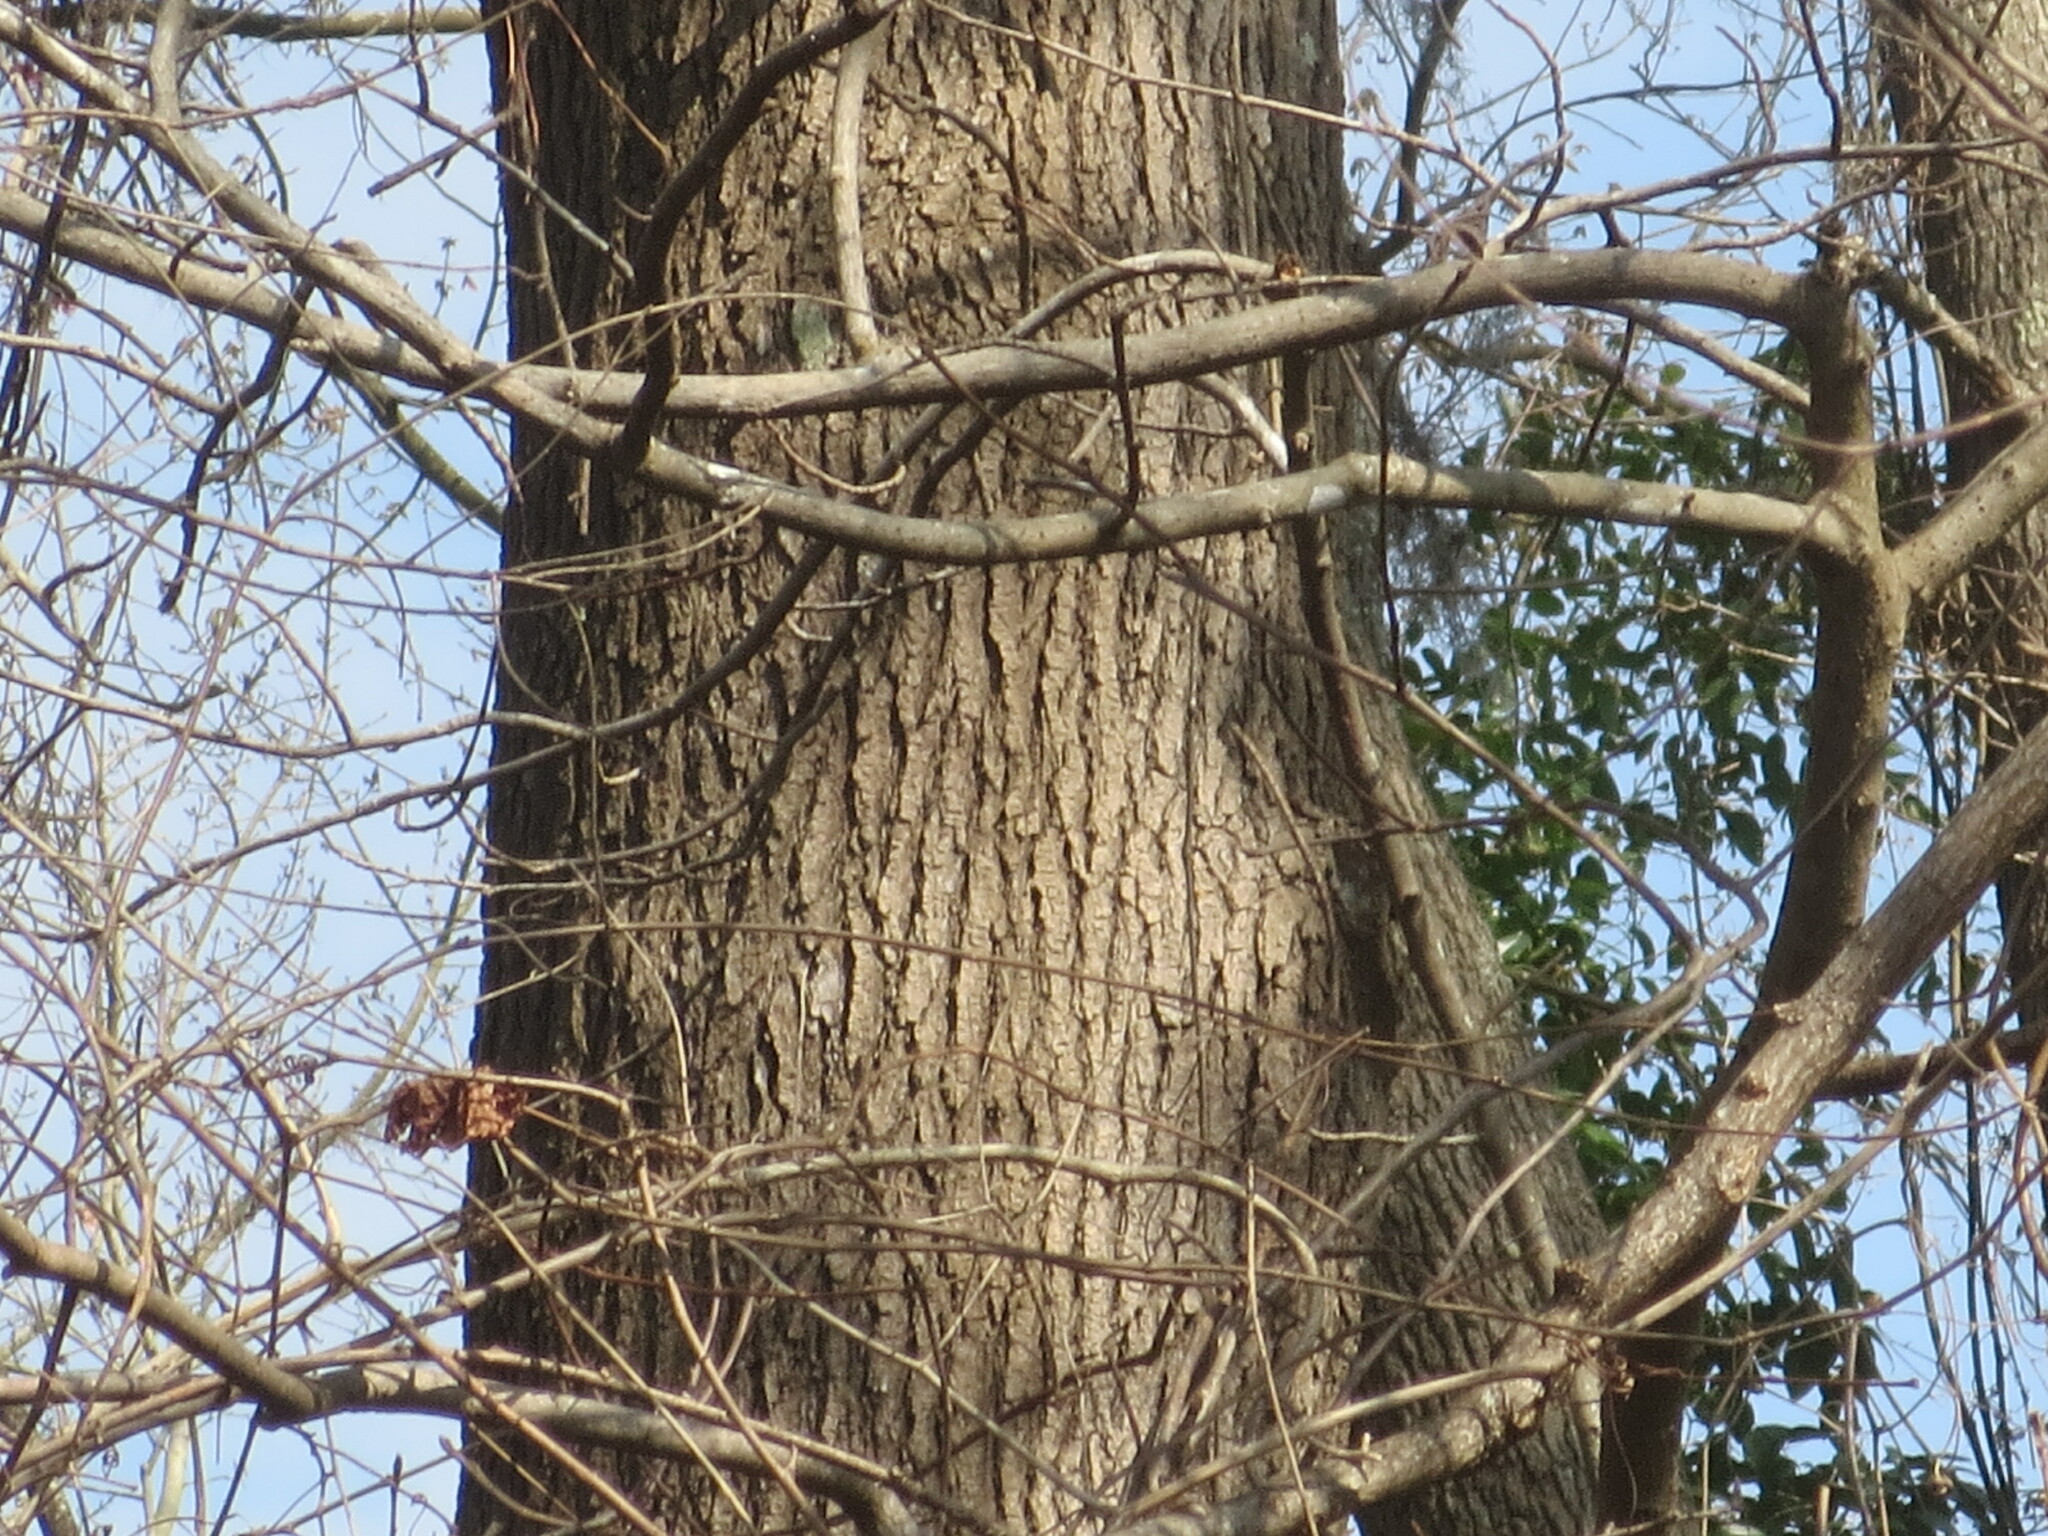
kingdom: Plantae
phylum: Tracheophyta
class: Magnoliopsida
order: Saxifragales
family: Altingiaceae
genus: Liquidambar
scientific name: Liquidambar styraciflua
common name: Sweet gum
